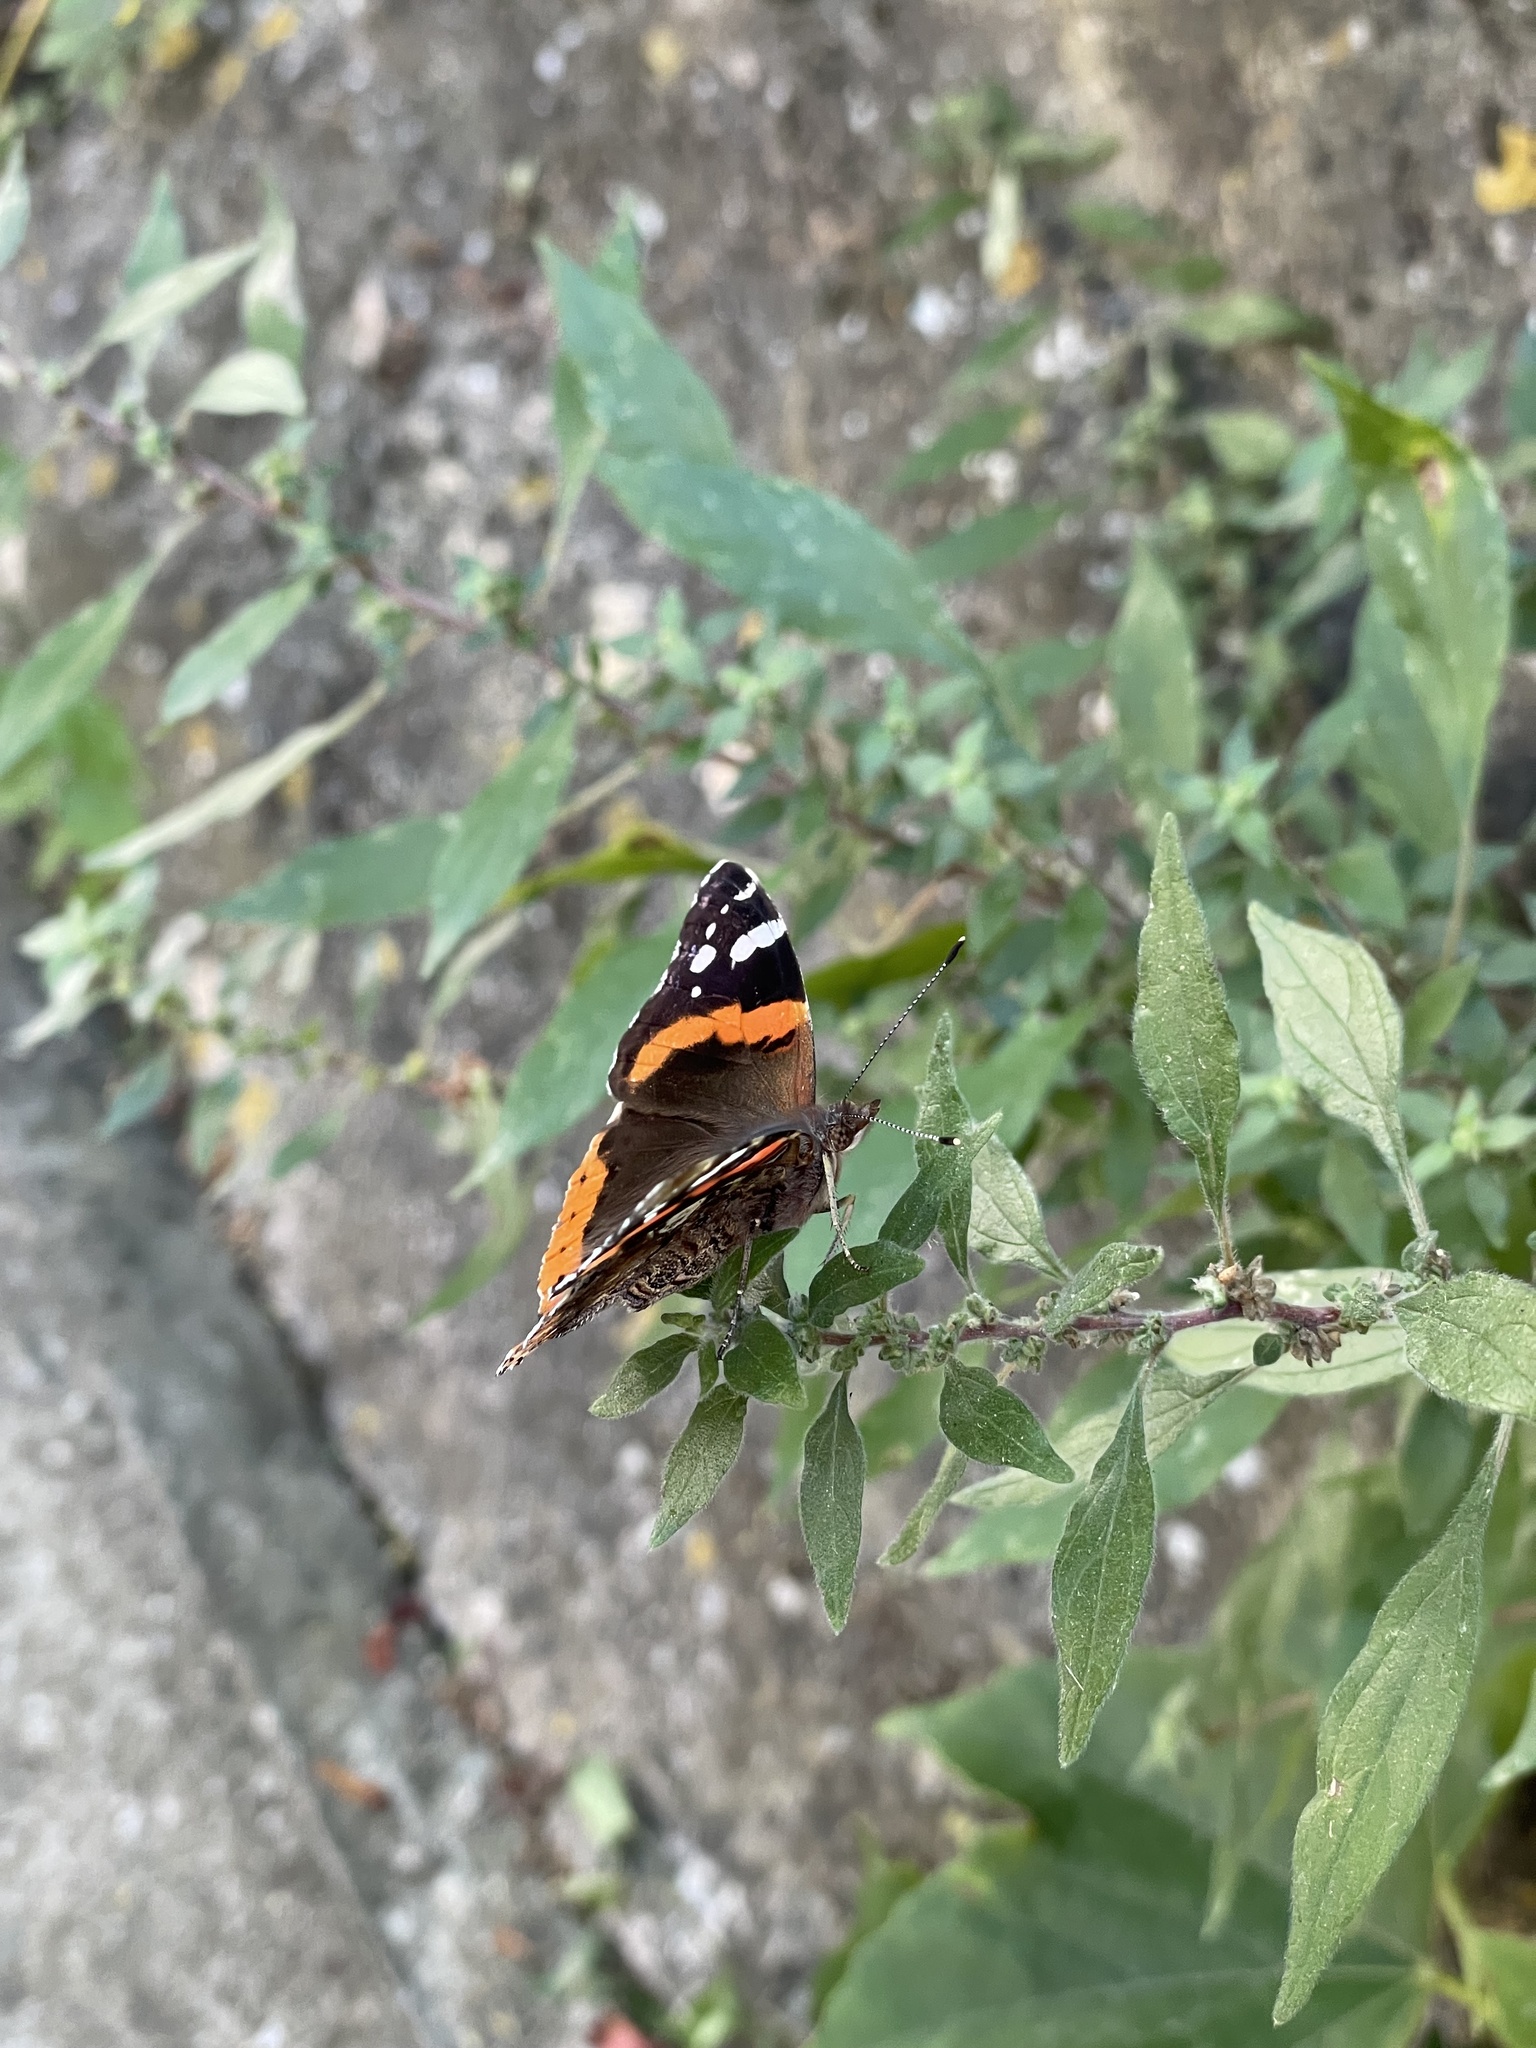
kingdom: Animalia
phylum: Arthropoda
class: Insecta
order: Lepidoptera
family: Nymphalidae
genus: Vanessa
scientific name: Vanessa atalanta
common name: Red admiral
